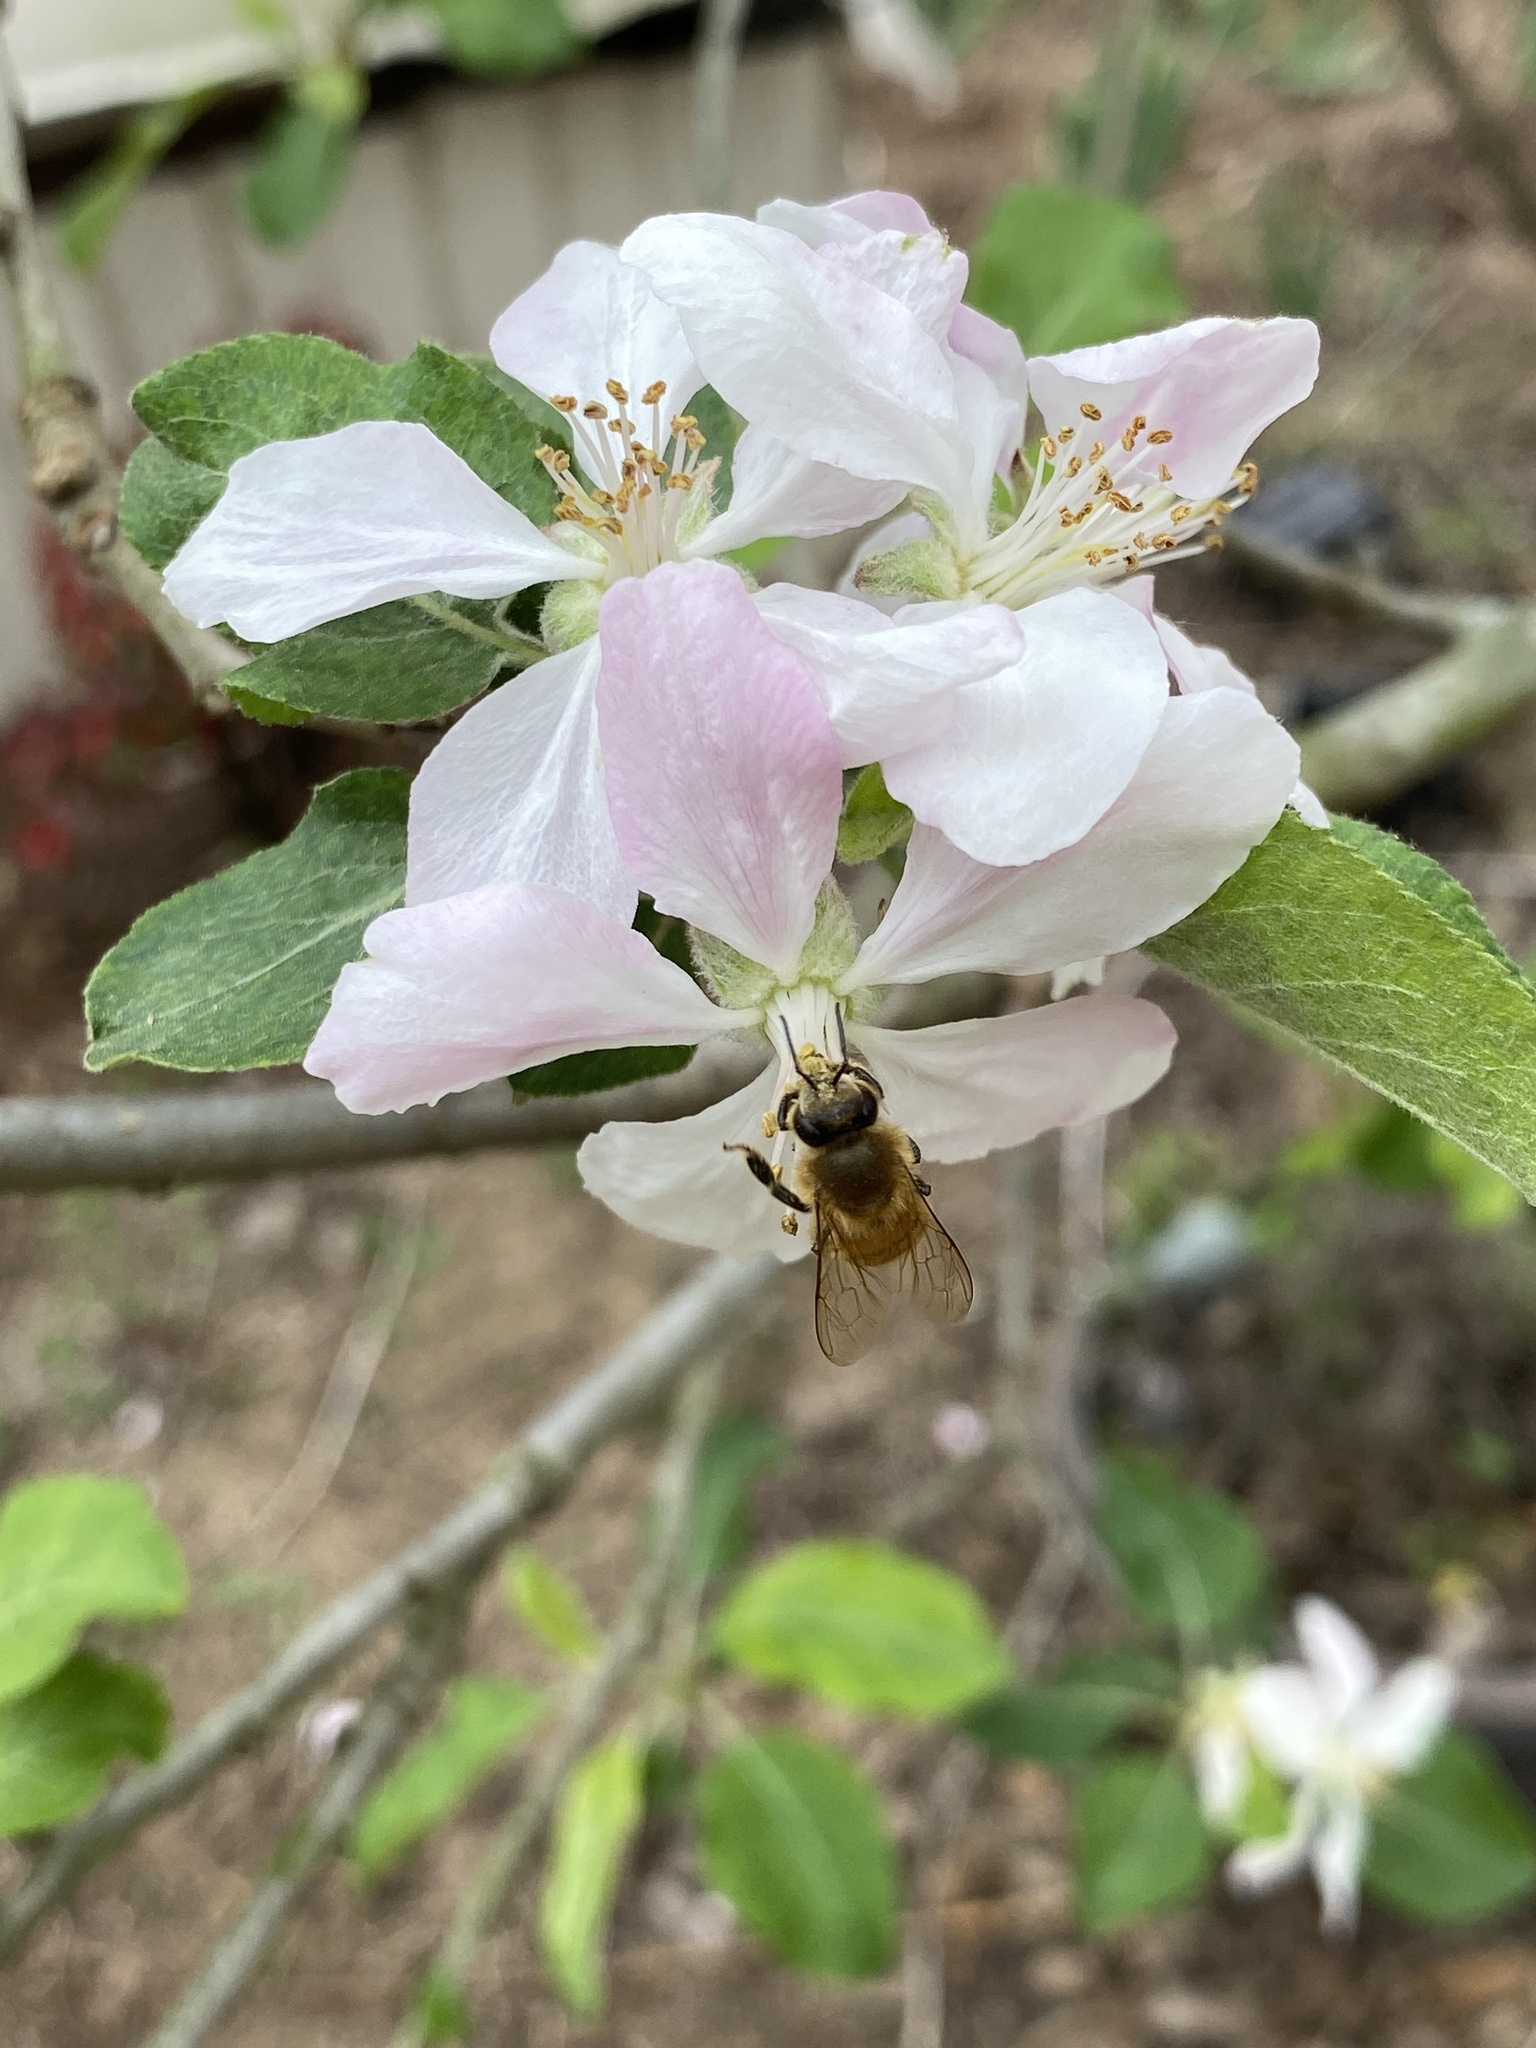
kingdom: Animalia
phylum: Arthropoda
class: Insecta
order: Hymenoptera
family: Apidae
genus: Apis
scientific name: Apis mellifera
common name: Honey bee
